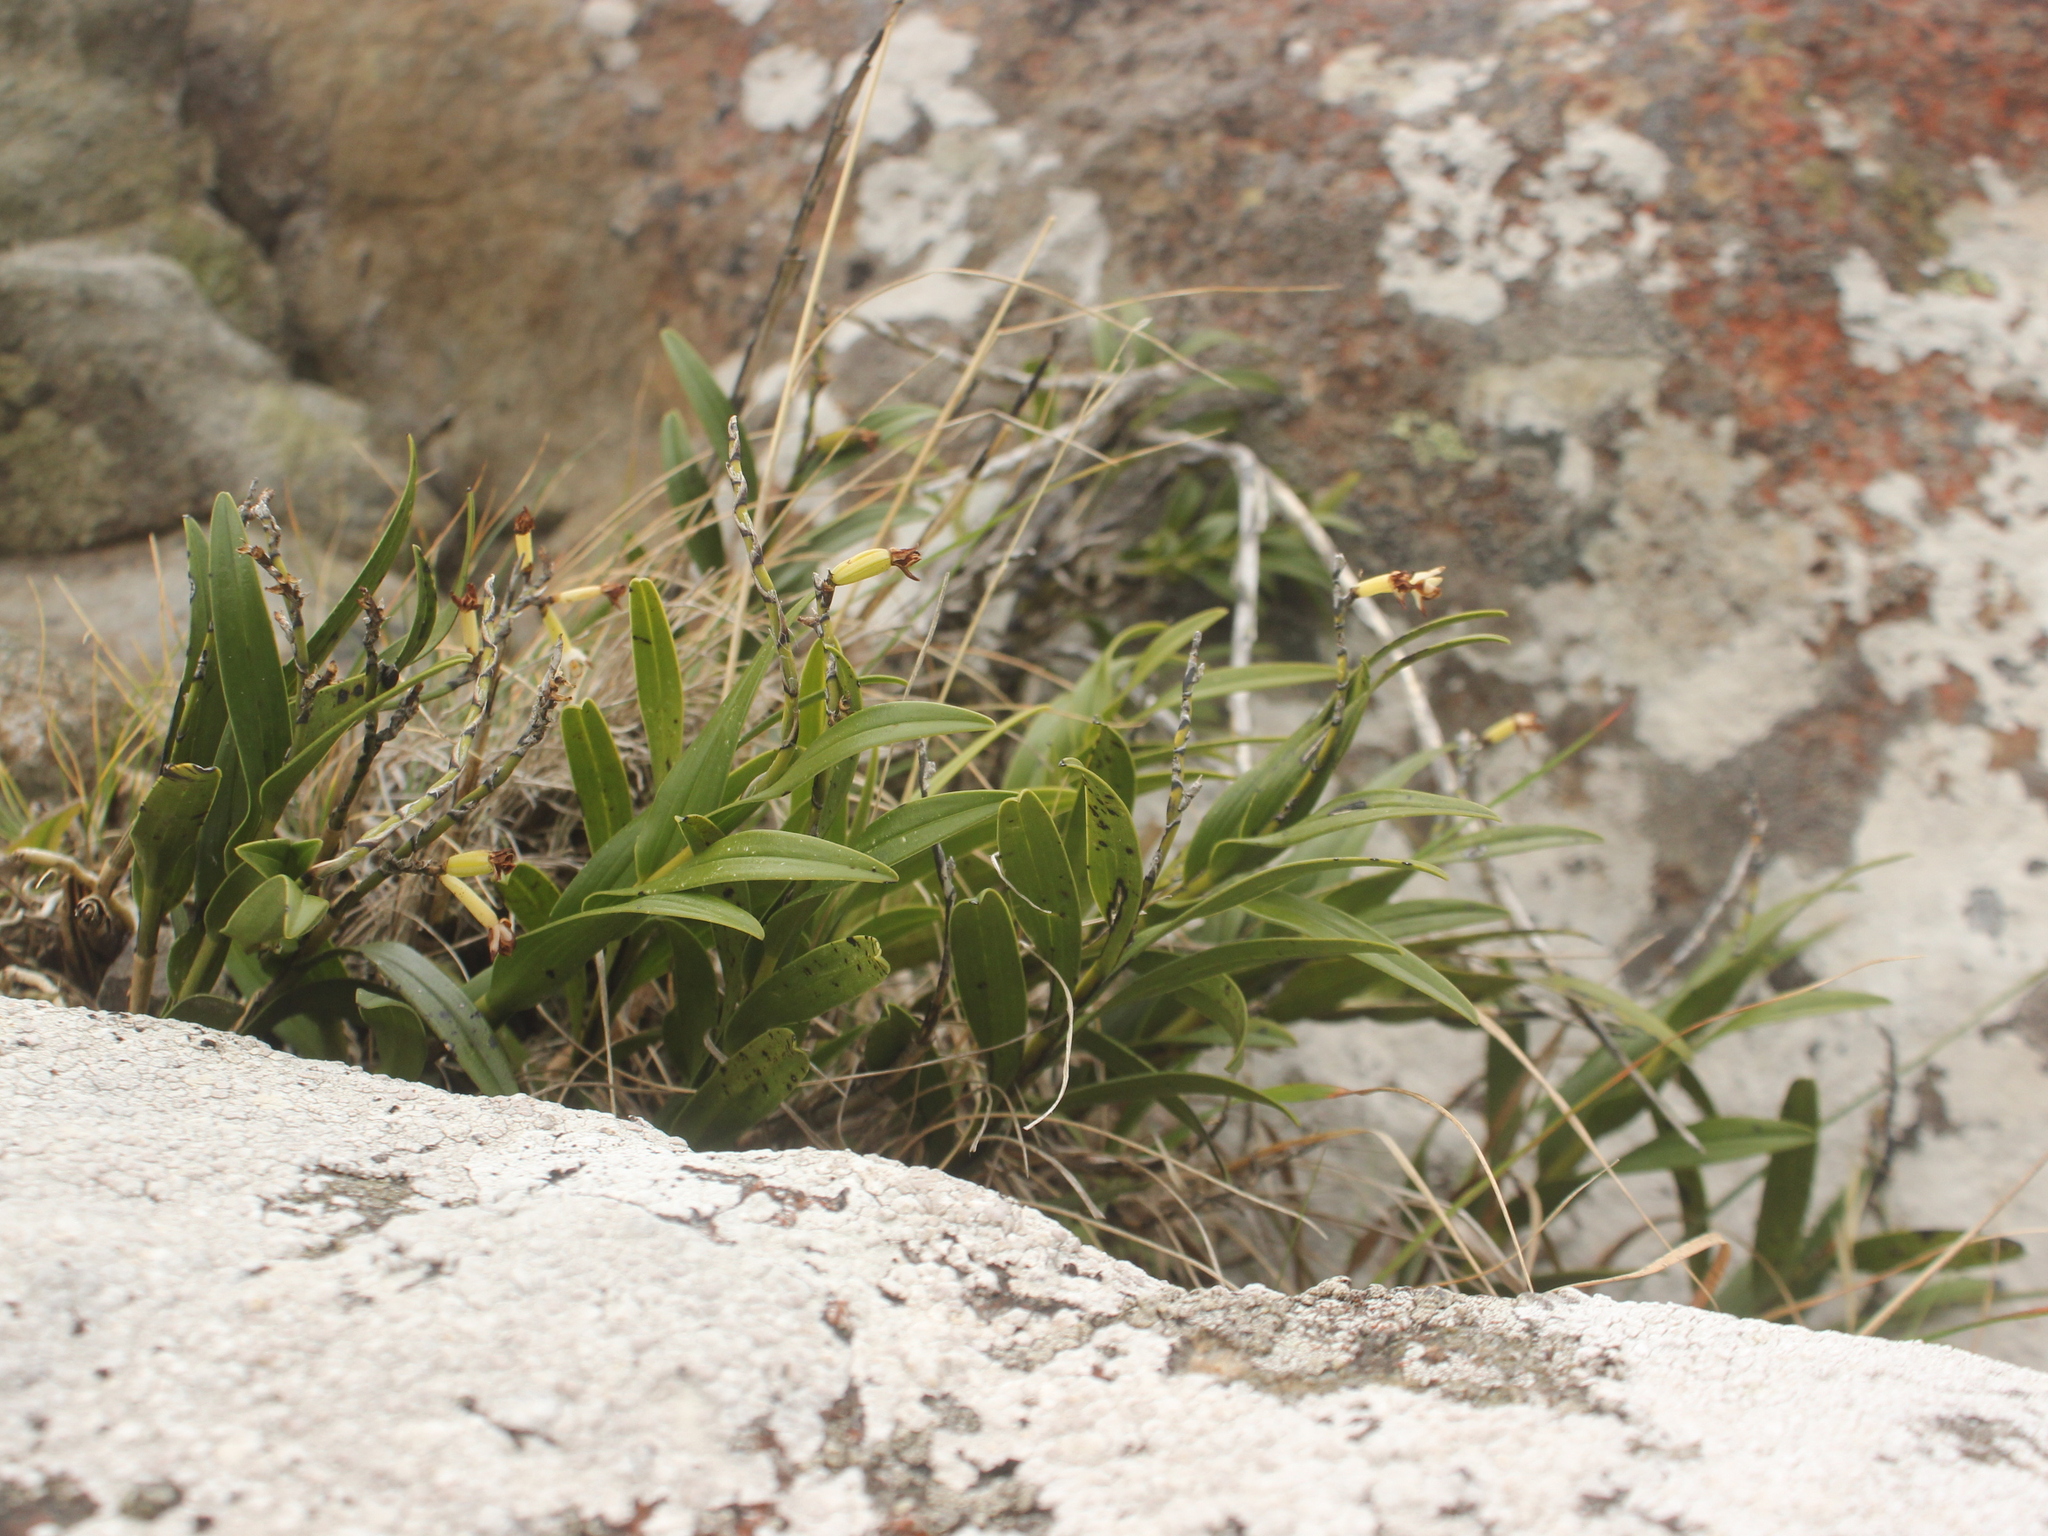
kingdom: Plantae
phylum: Tracheophyta
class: Liliopsida
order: Asparagales
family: Orchidaceae
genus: Earina
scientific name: Earina autumnalis
